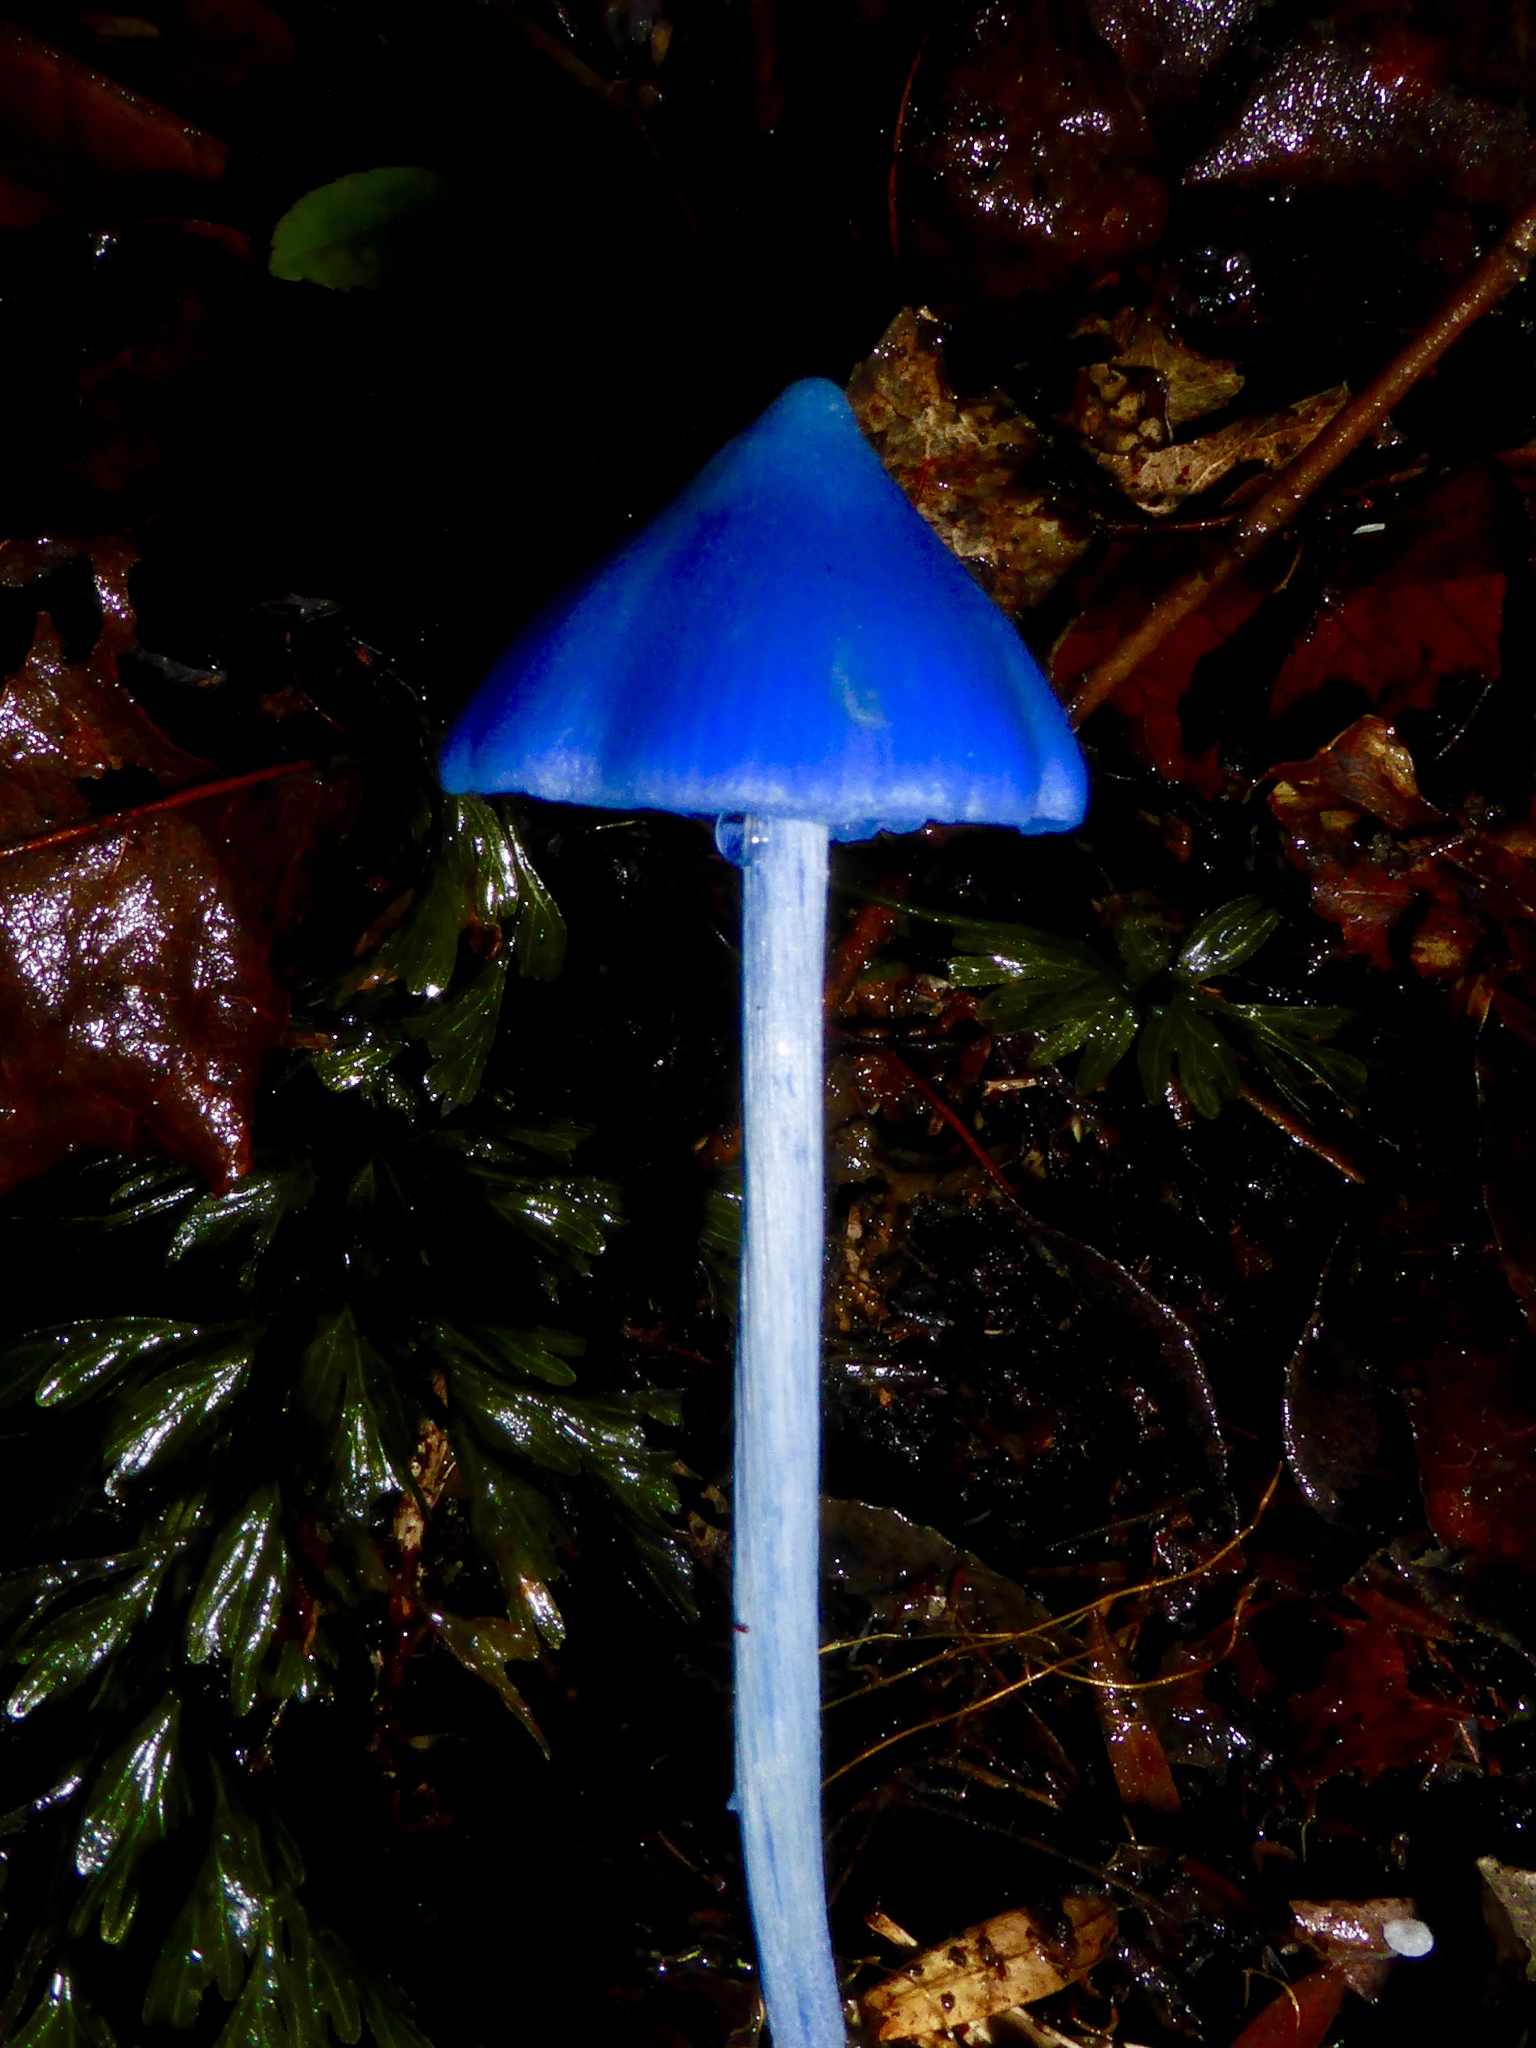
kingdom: Fungi
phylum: Basidiomycota
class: Agaricomycetes
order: Agaricales
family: Entolomataceae
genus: Entoloma
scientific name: Entoloma hochstetteri
